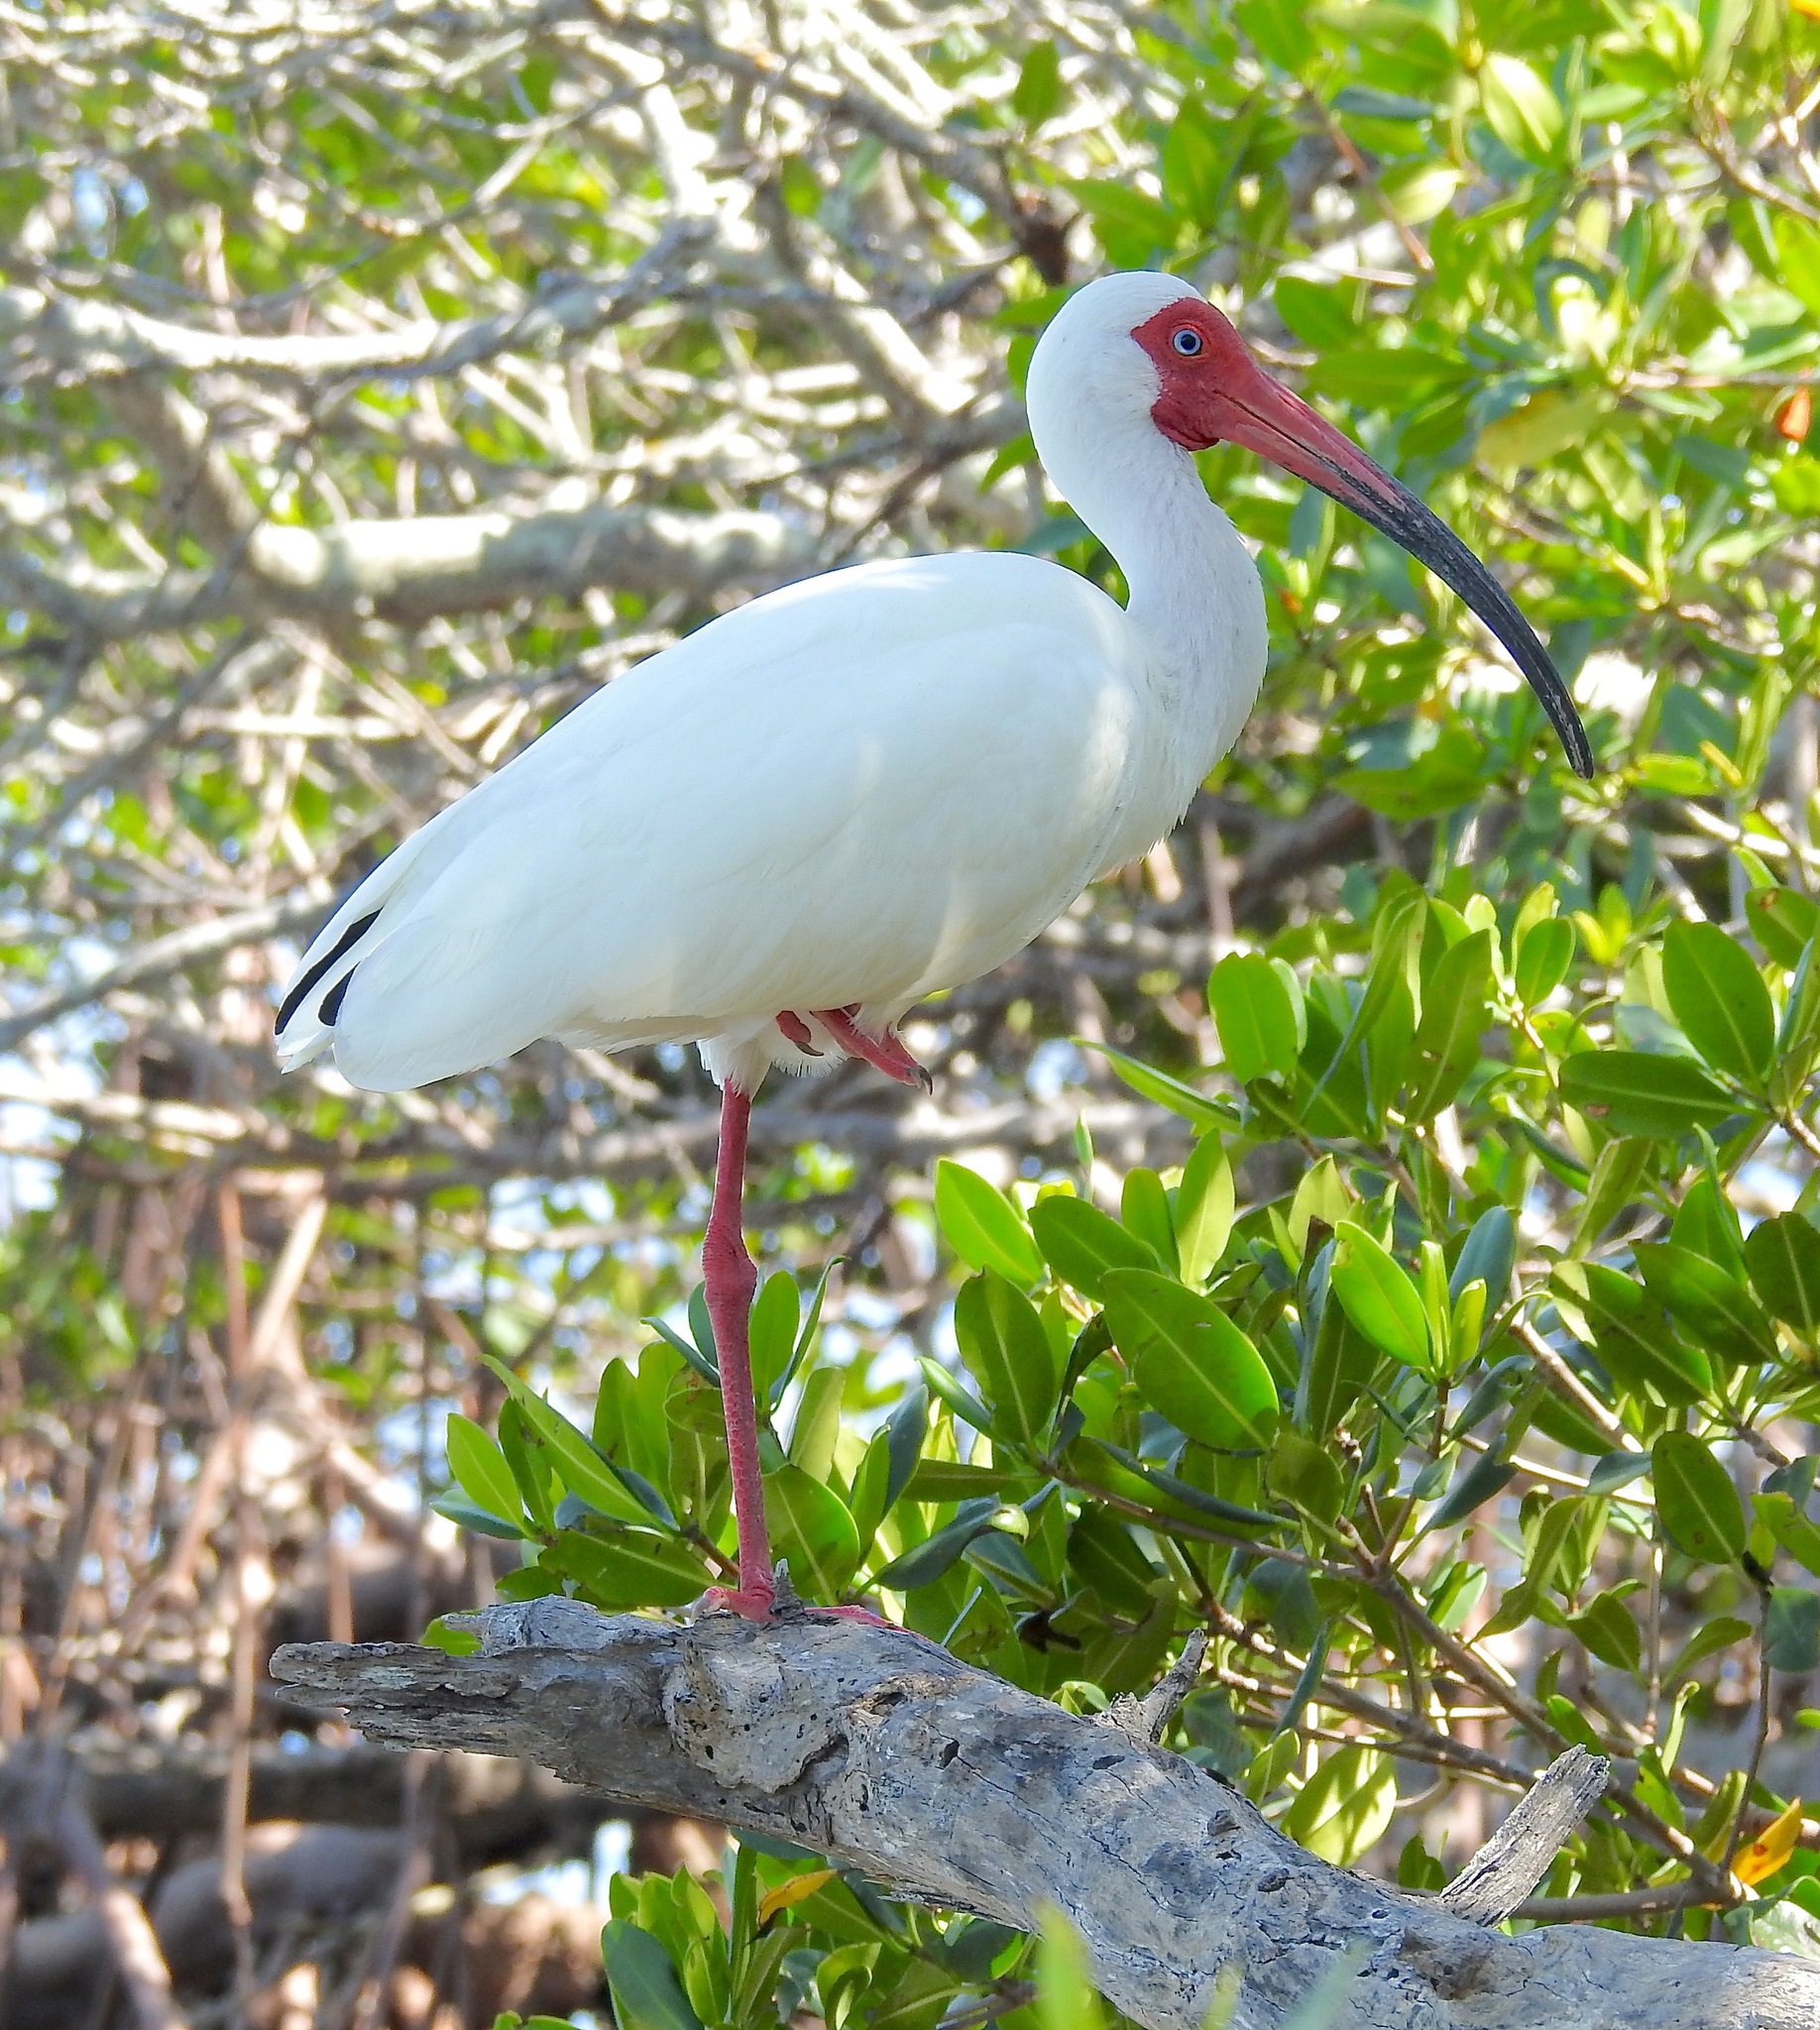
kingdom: Animalia
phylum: Chordata
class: Aves
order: Pelecaniformes
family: Threskiornithidae
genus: Eudocimus
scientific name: Eudocimus albus
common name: White ibis
